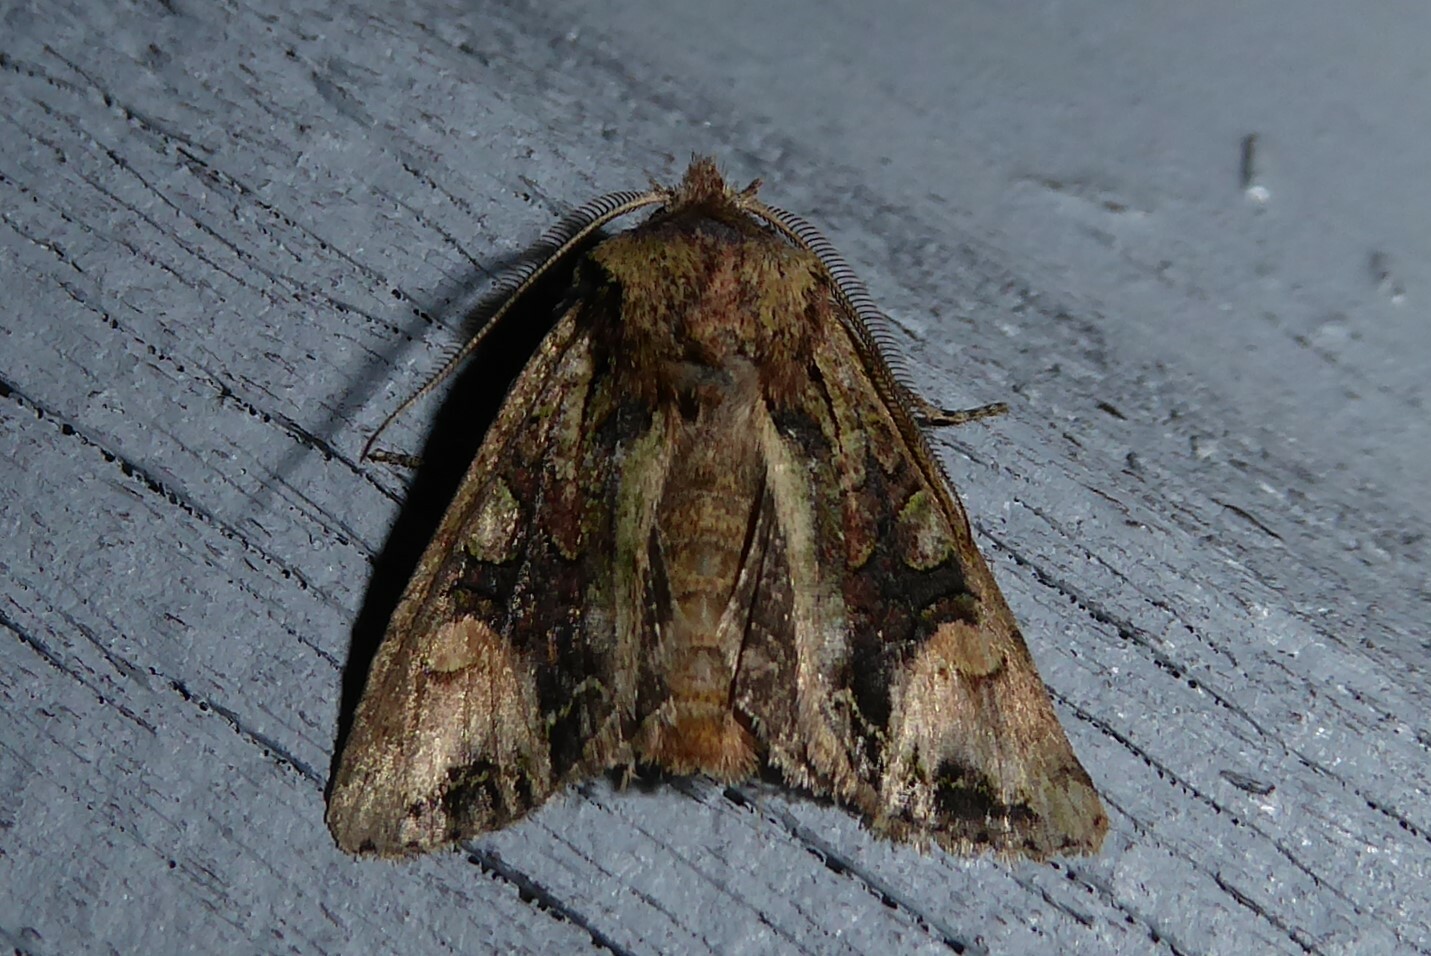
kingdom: Animalia
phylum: Arthropoda
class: Insecta
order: Lepidoptera
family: Noctuidae
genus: Ichneutica
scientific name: Ichneutica
